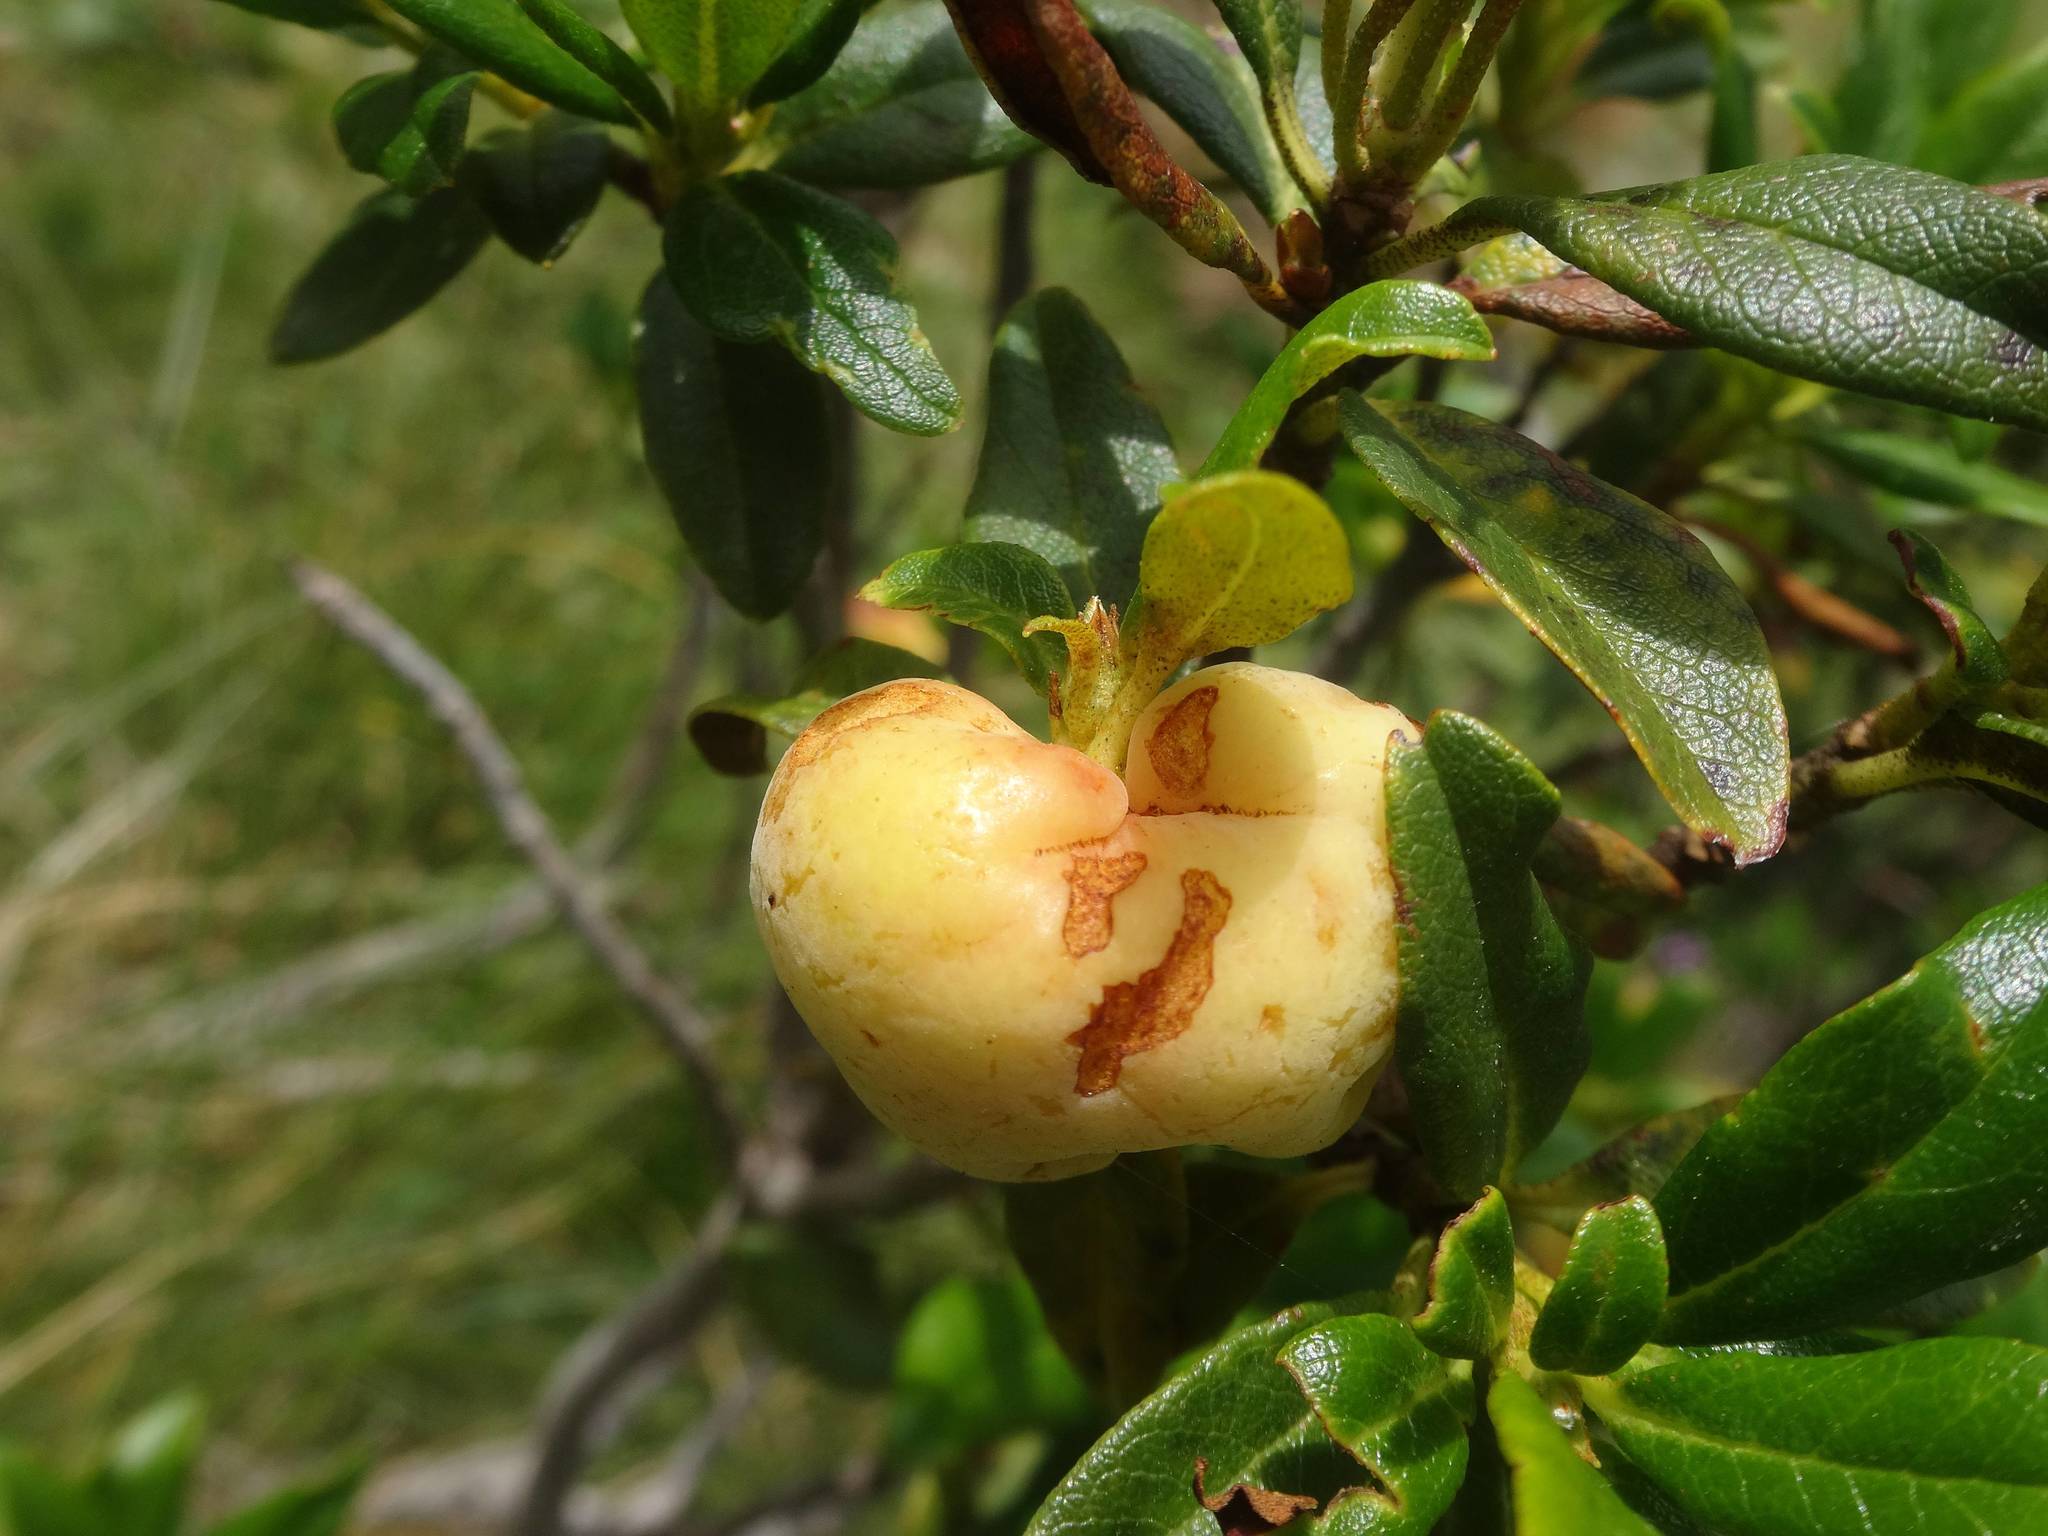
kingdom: Fungi
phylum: Basidiomycota
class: Exobasidiomycetes
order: Exobasidiales
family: Exobasidiaceae
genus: Exobasidium
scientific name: Exobasidium rhododendri
